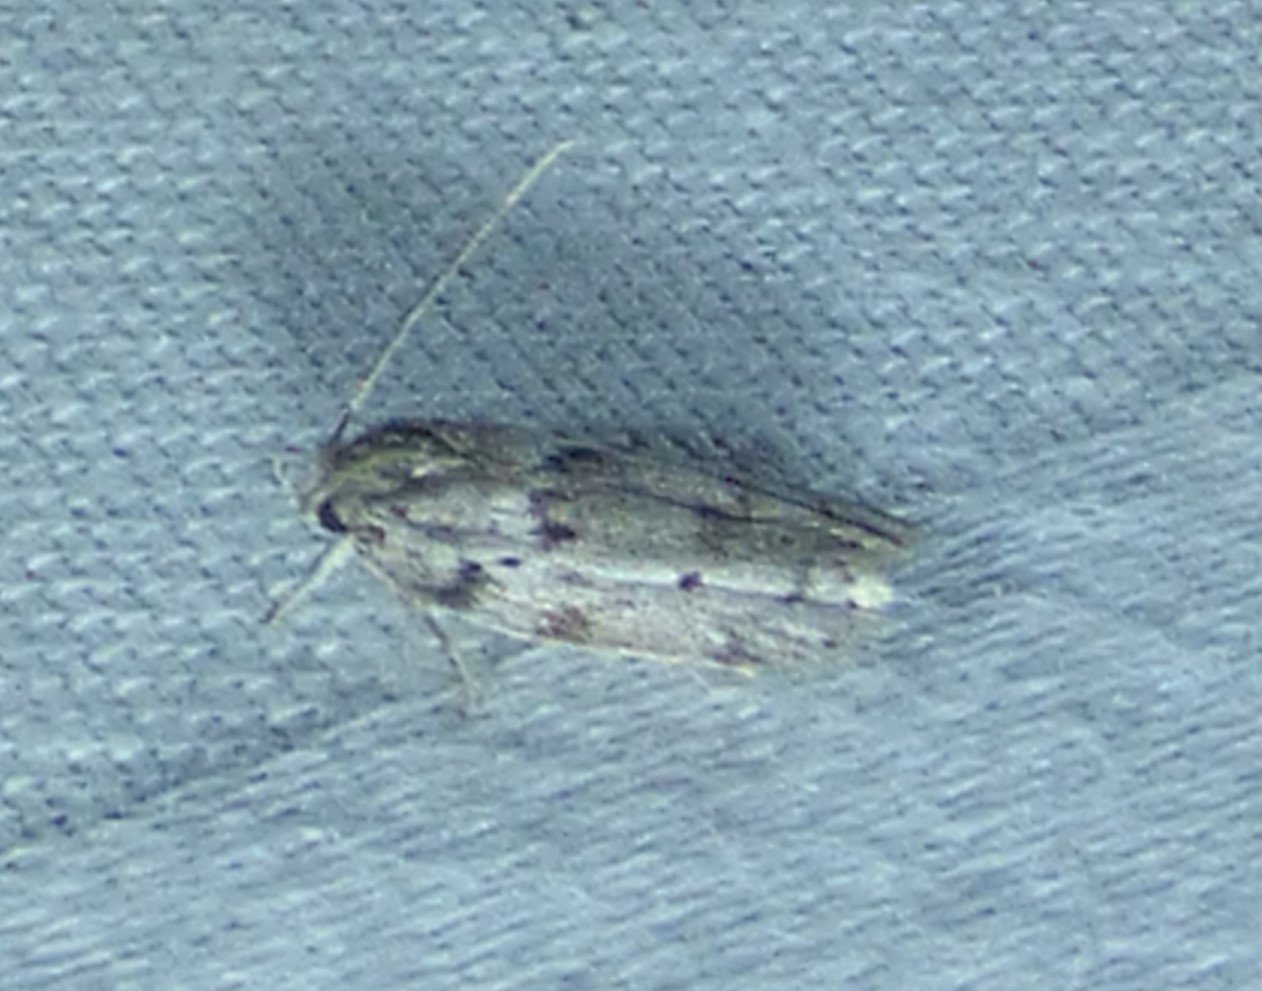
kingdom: Animalia
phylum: Arthropoda
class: Insecta
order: Lepidoptera
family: Depressariidae
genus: Antaeotricha
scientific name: Antaeotricha humilis
